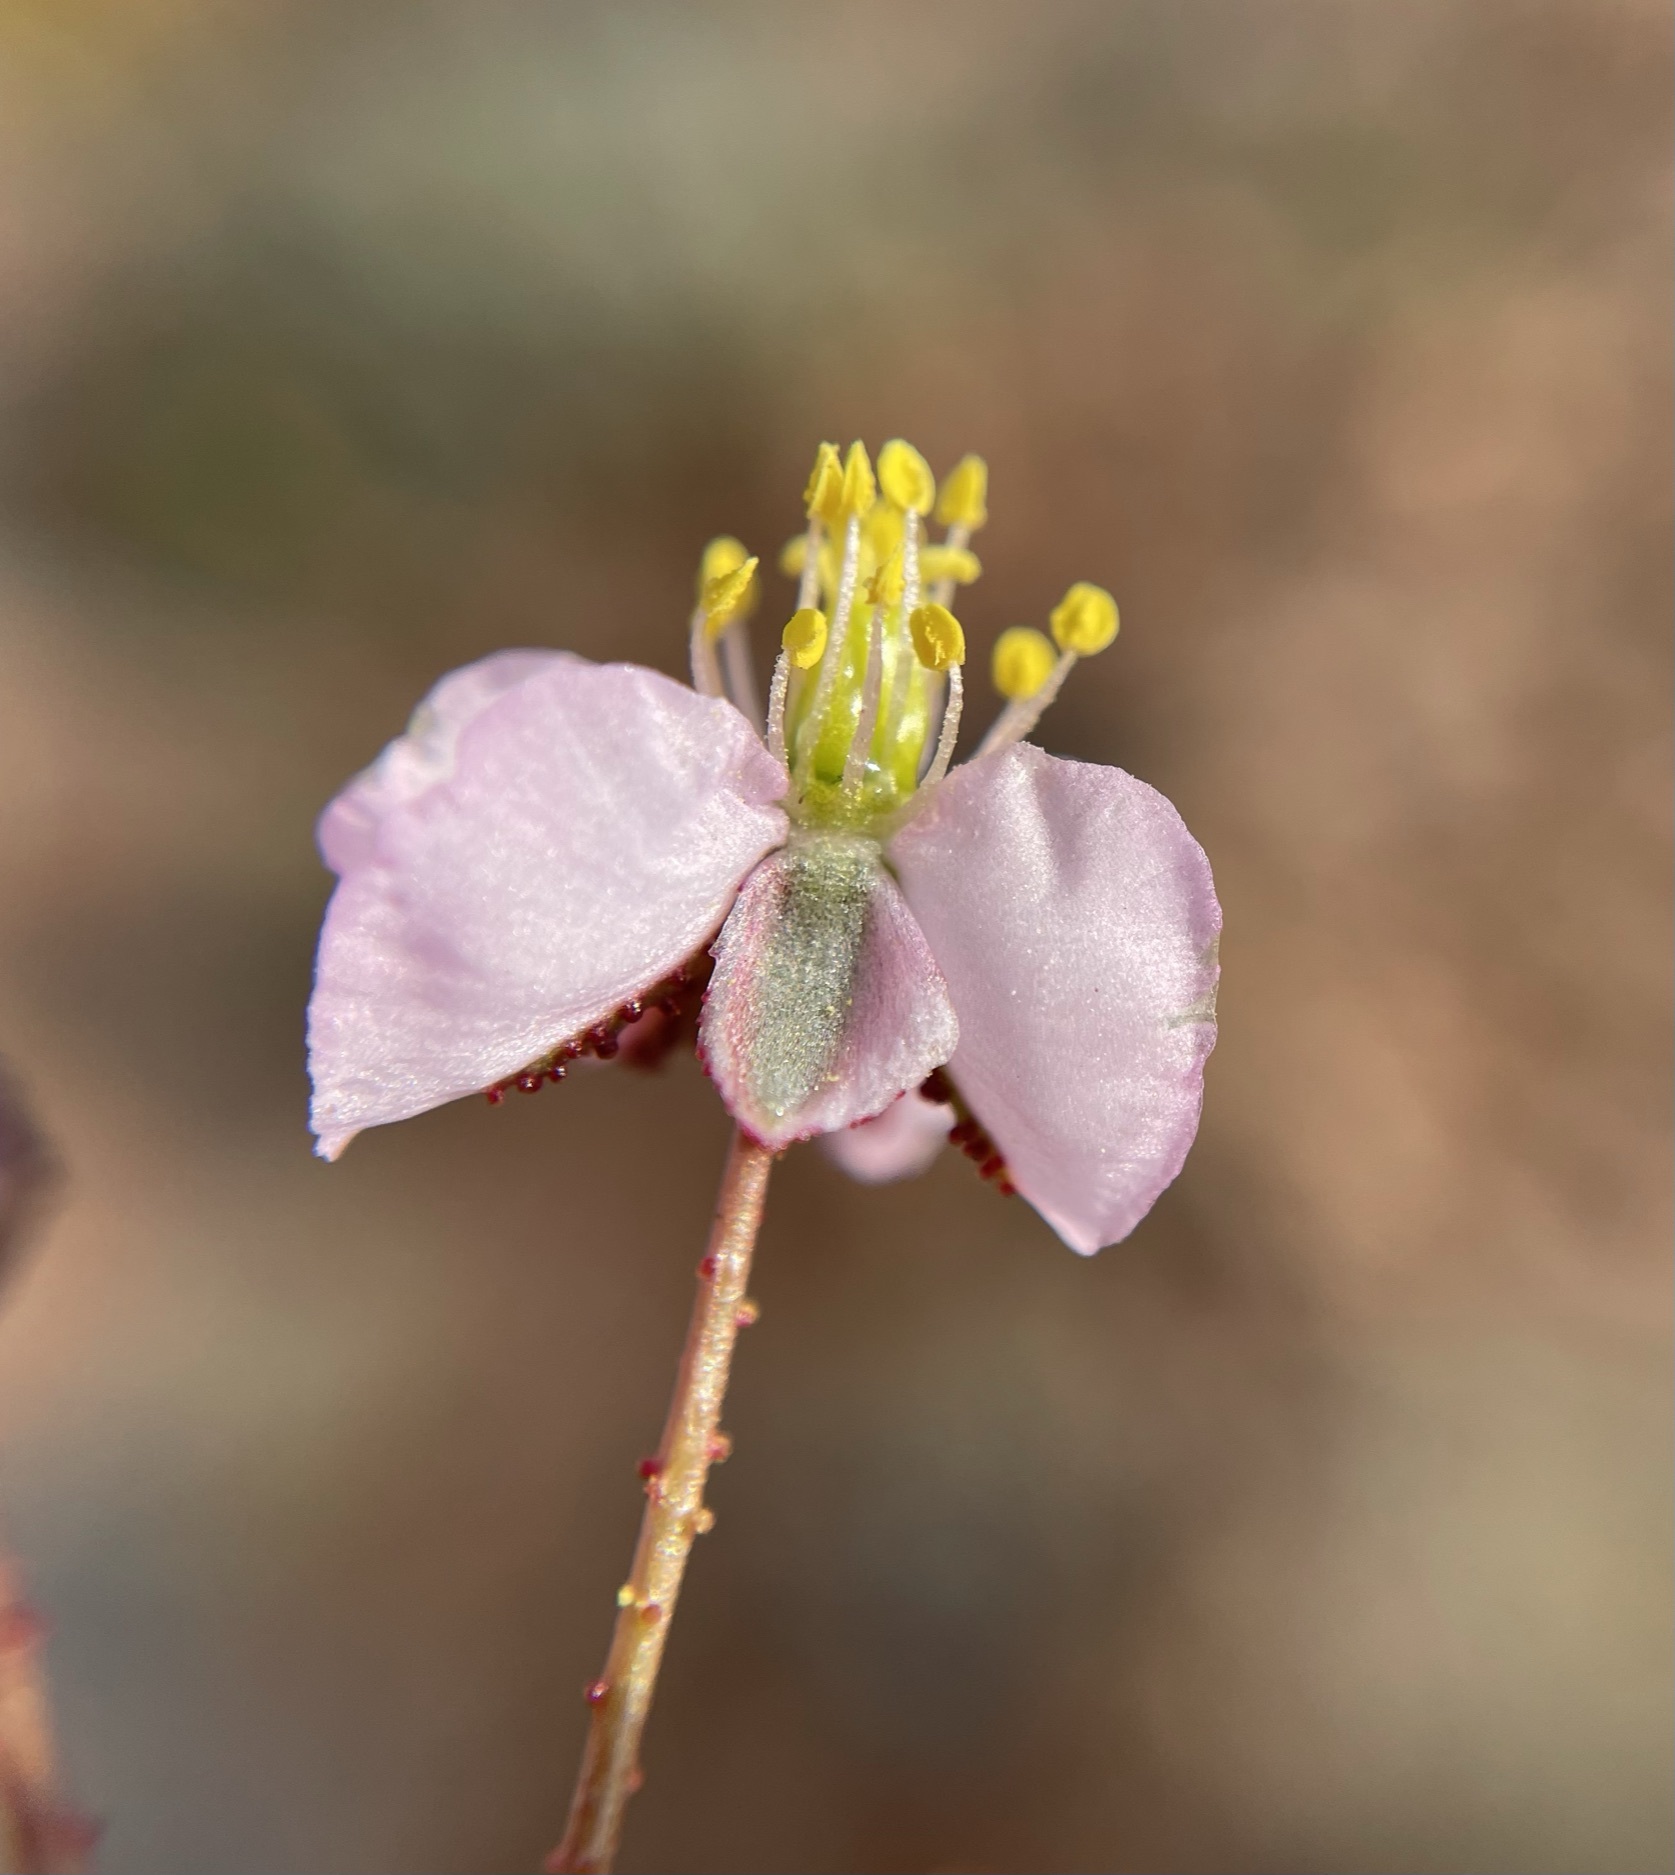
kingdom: Plantae
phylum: Tracheophyta
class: Magnoliopsida
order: Caryophyllales
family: Kewaceae
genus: Kewa
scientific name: Kewa salsoloides
